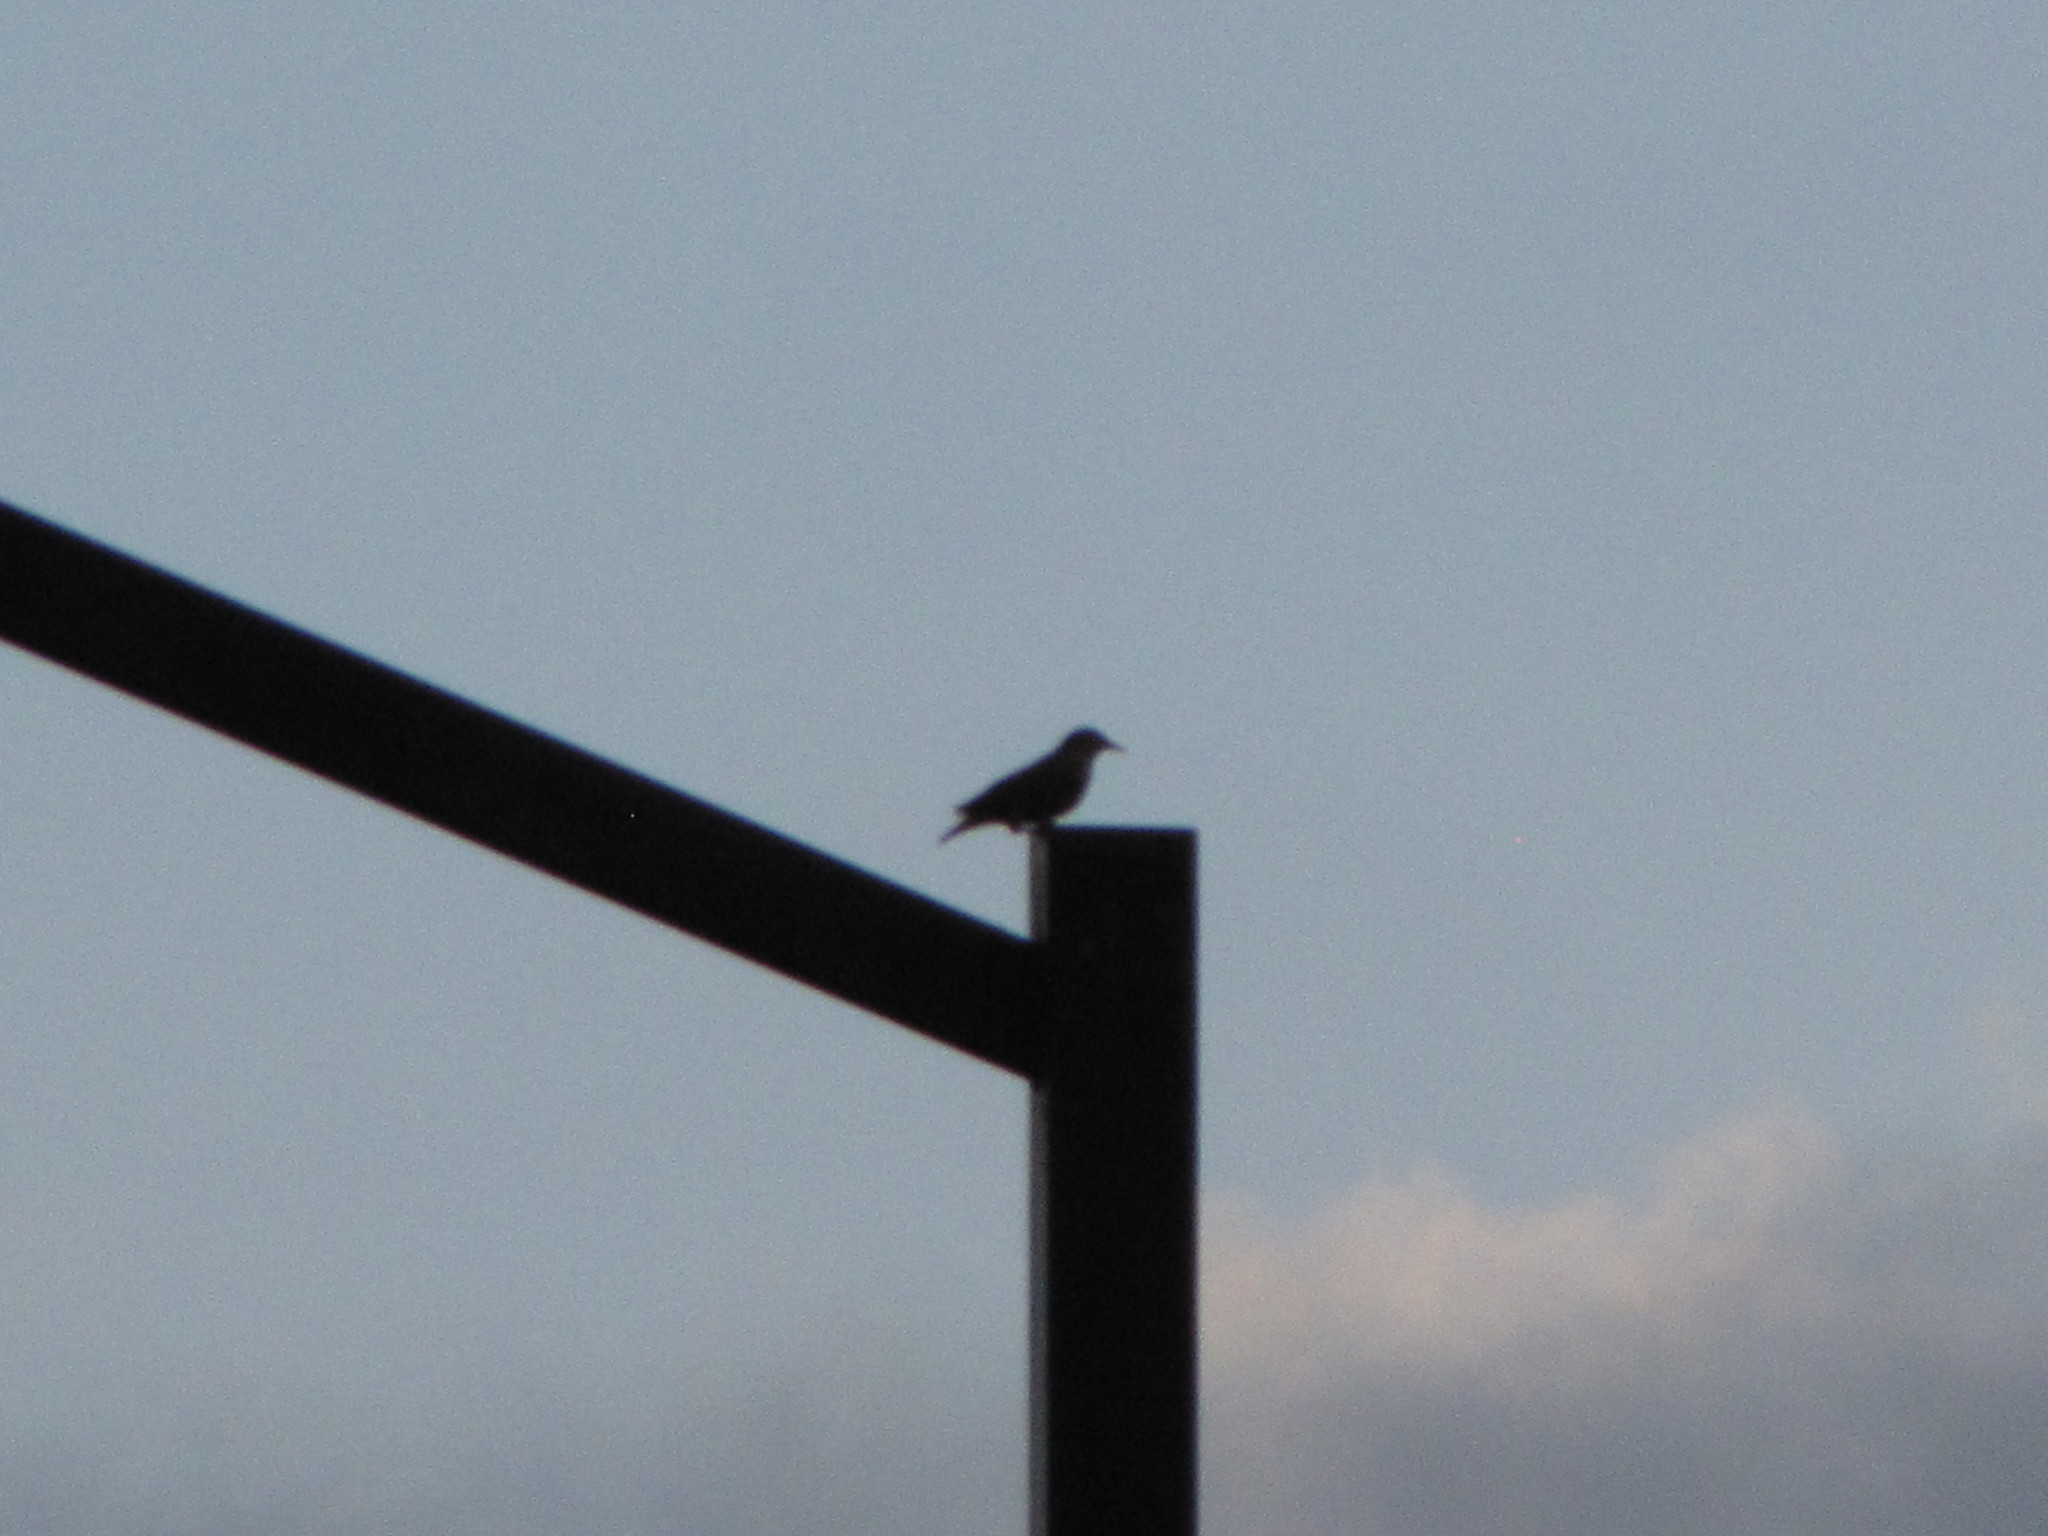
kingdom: Animalia
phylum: Chordata
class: Aves
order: Passeriformes
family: Sturnidae
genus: Sturnus
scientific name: Sturnus vulgaris
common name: Common starling
